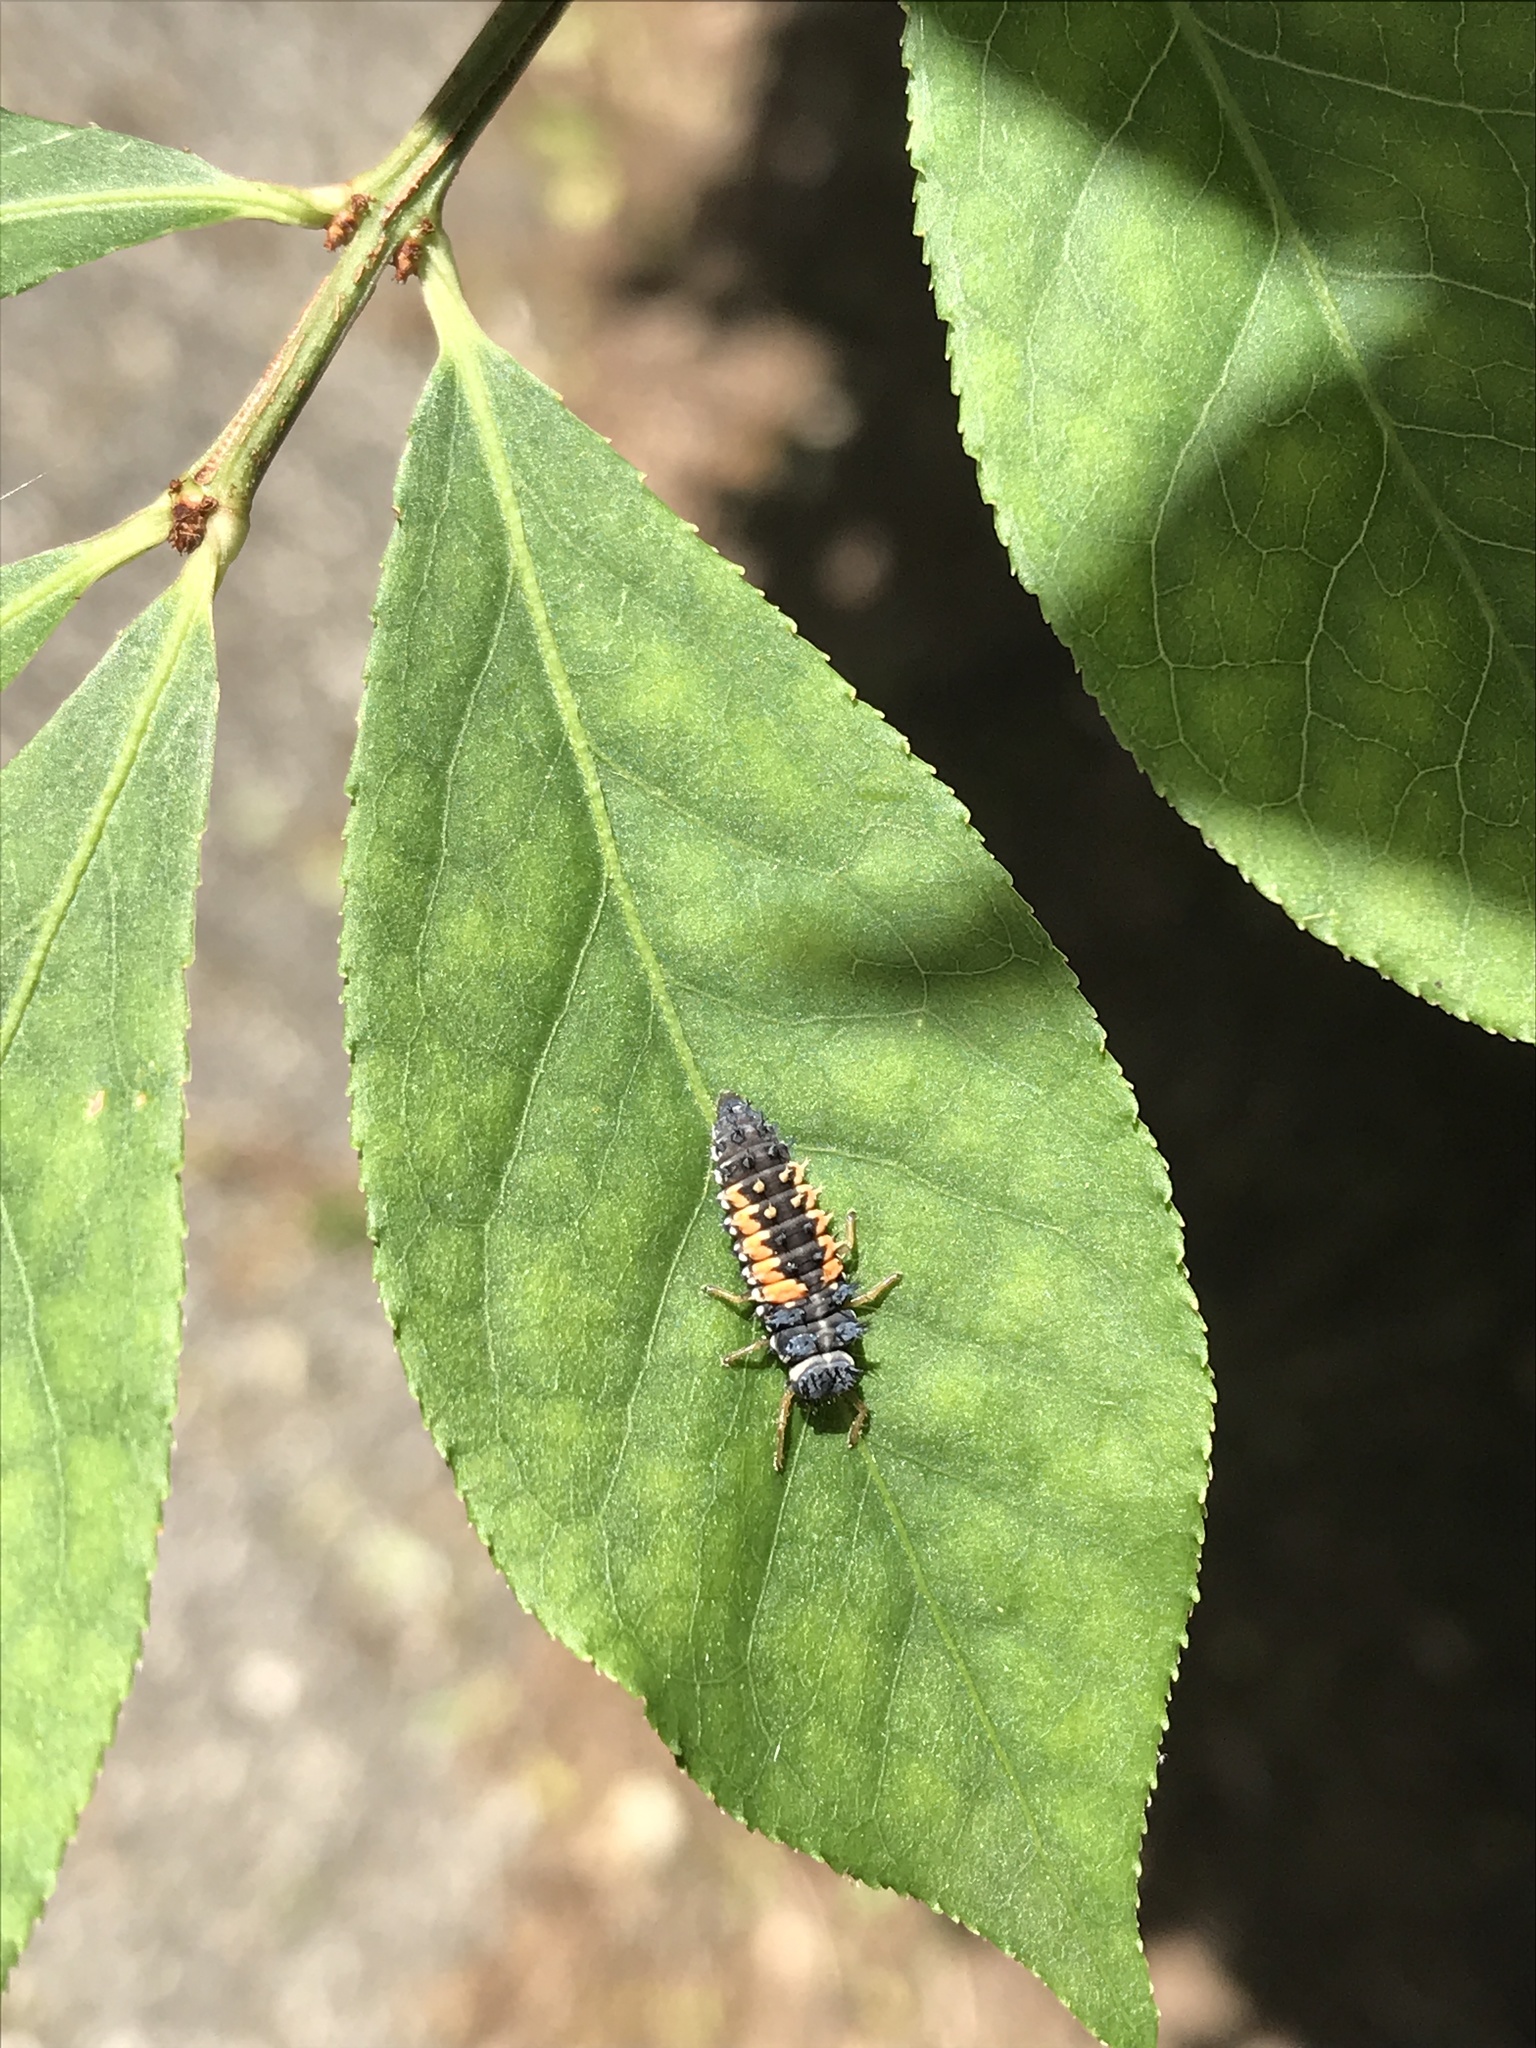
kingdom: Animalia
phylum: Arthropoda
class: Insecta
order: Coleoptera
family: Coccinellidae
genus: Harmonia
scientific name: Harmonia axyridis
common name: Harlequin ladybird
